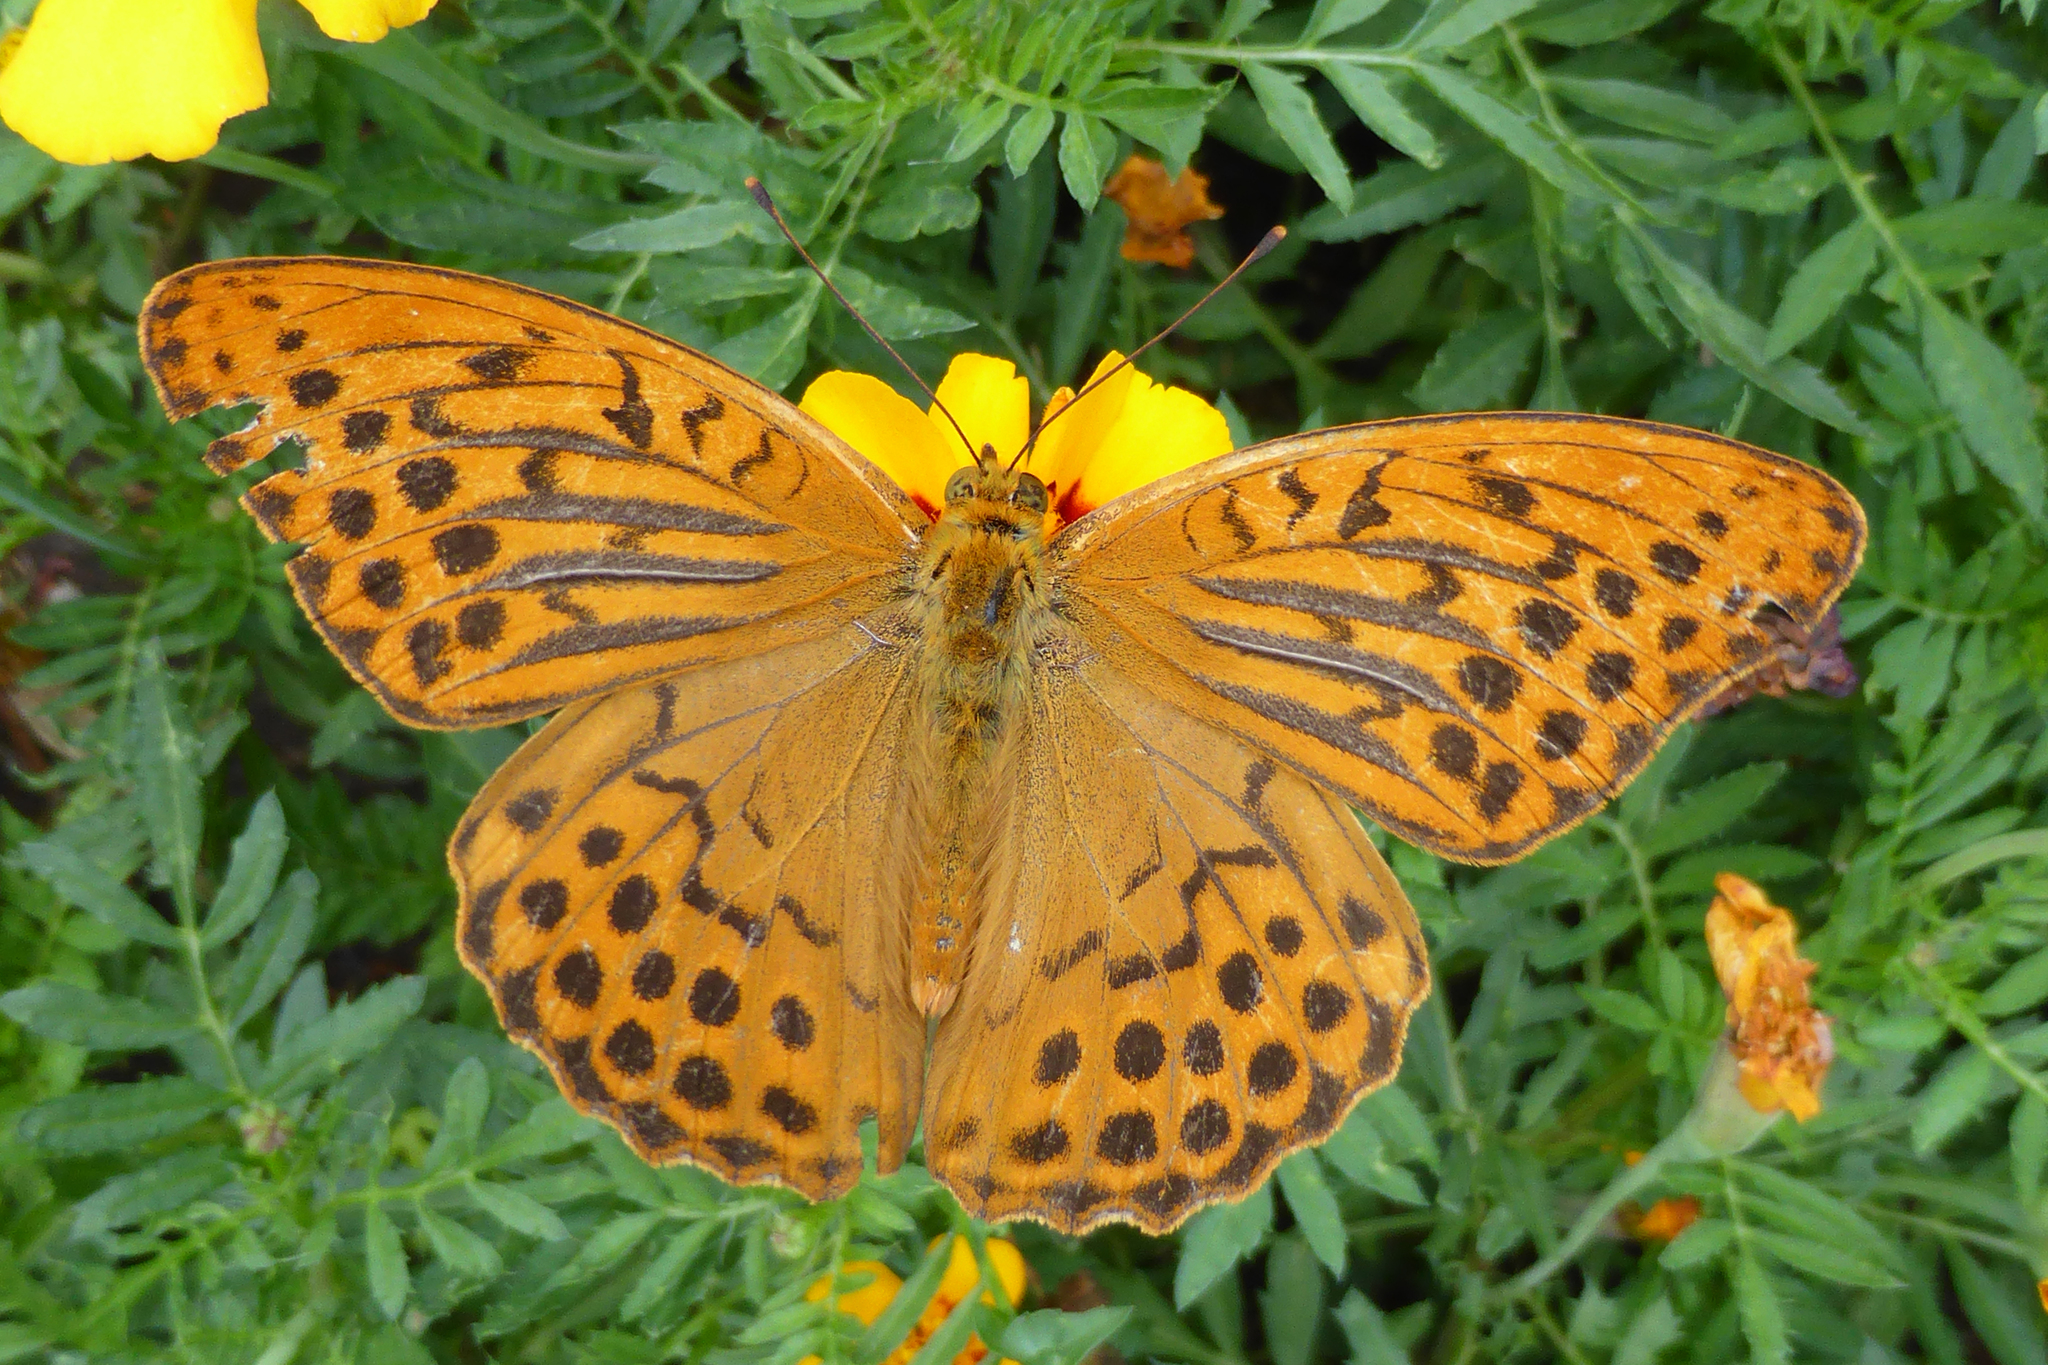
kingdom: Animalia
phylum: Arthropoda
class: Insecta
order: Lepidoptera
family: Nymphalidae
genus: Argynnis
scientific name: Argynnis paphia
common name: Silver-washed fritillary
